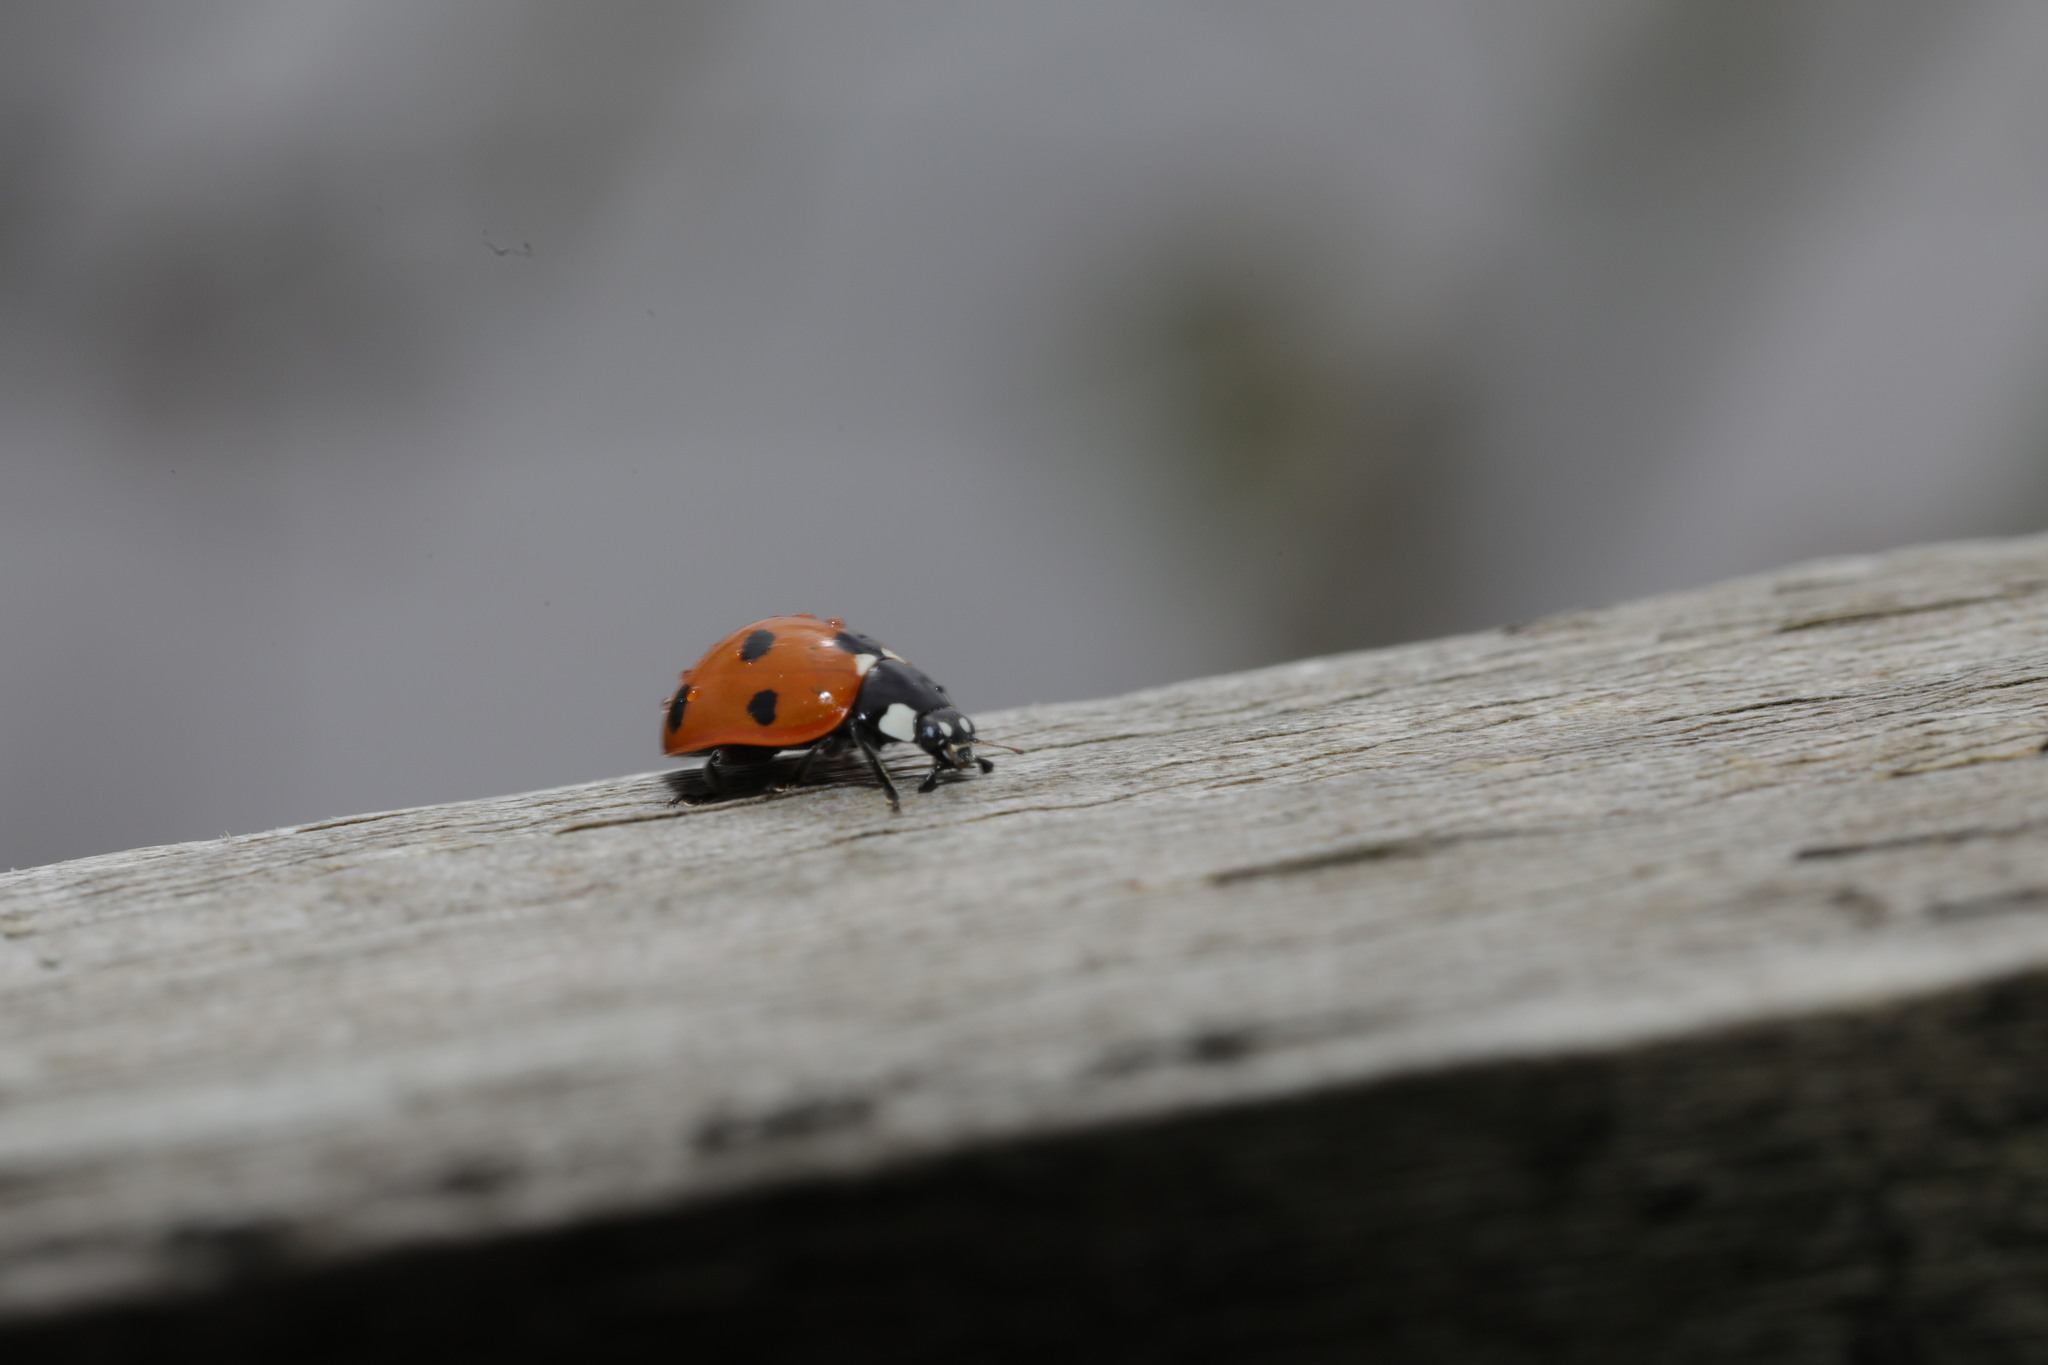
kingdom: Animalia
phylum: Arthropoda
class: Insecta
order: Coleoptera
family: Coccinellidae
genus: Coccinella
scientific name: Coccinella septempunctata
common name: Sevenspotted lady beetle
